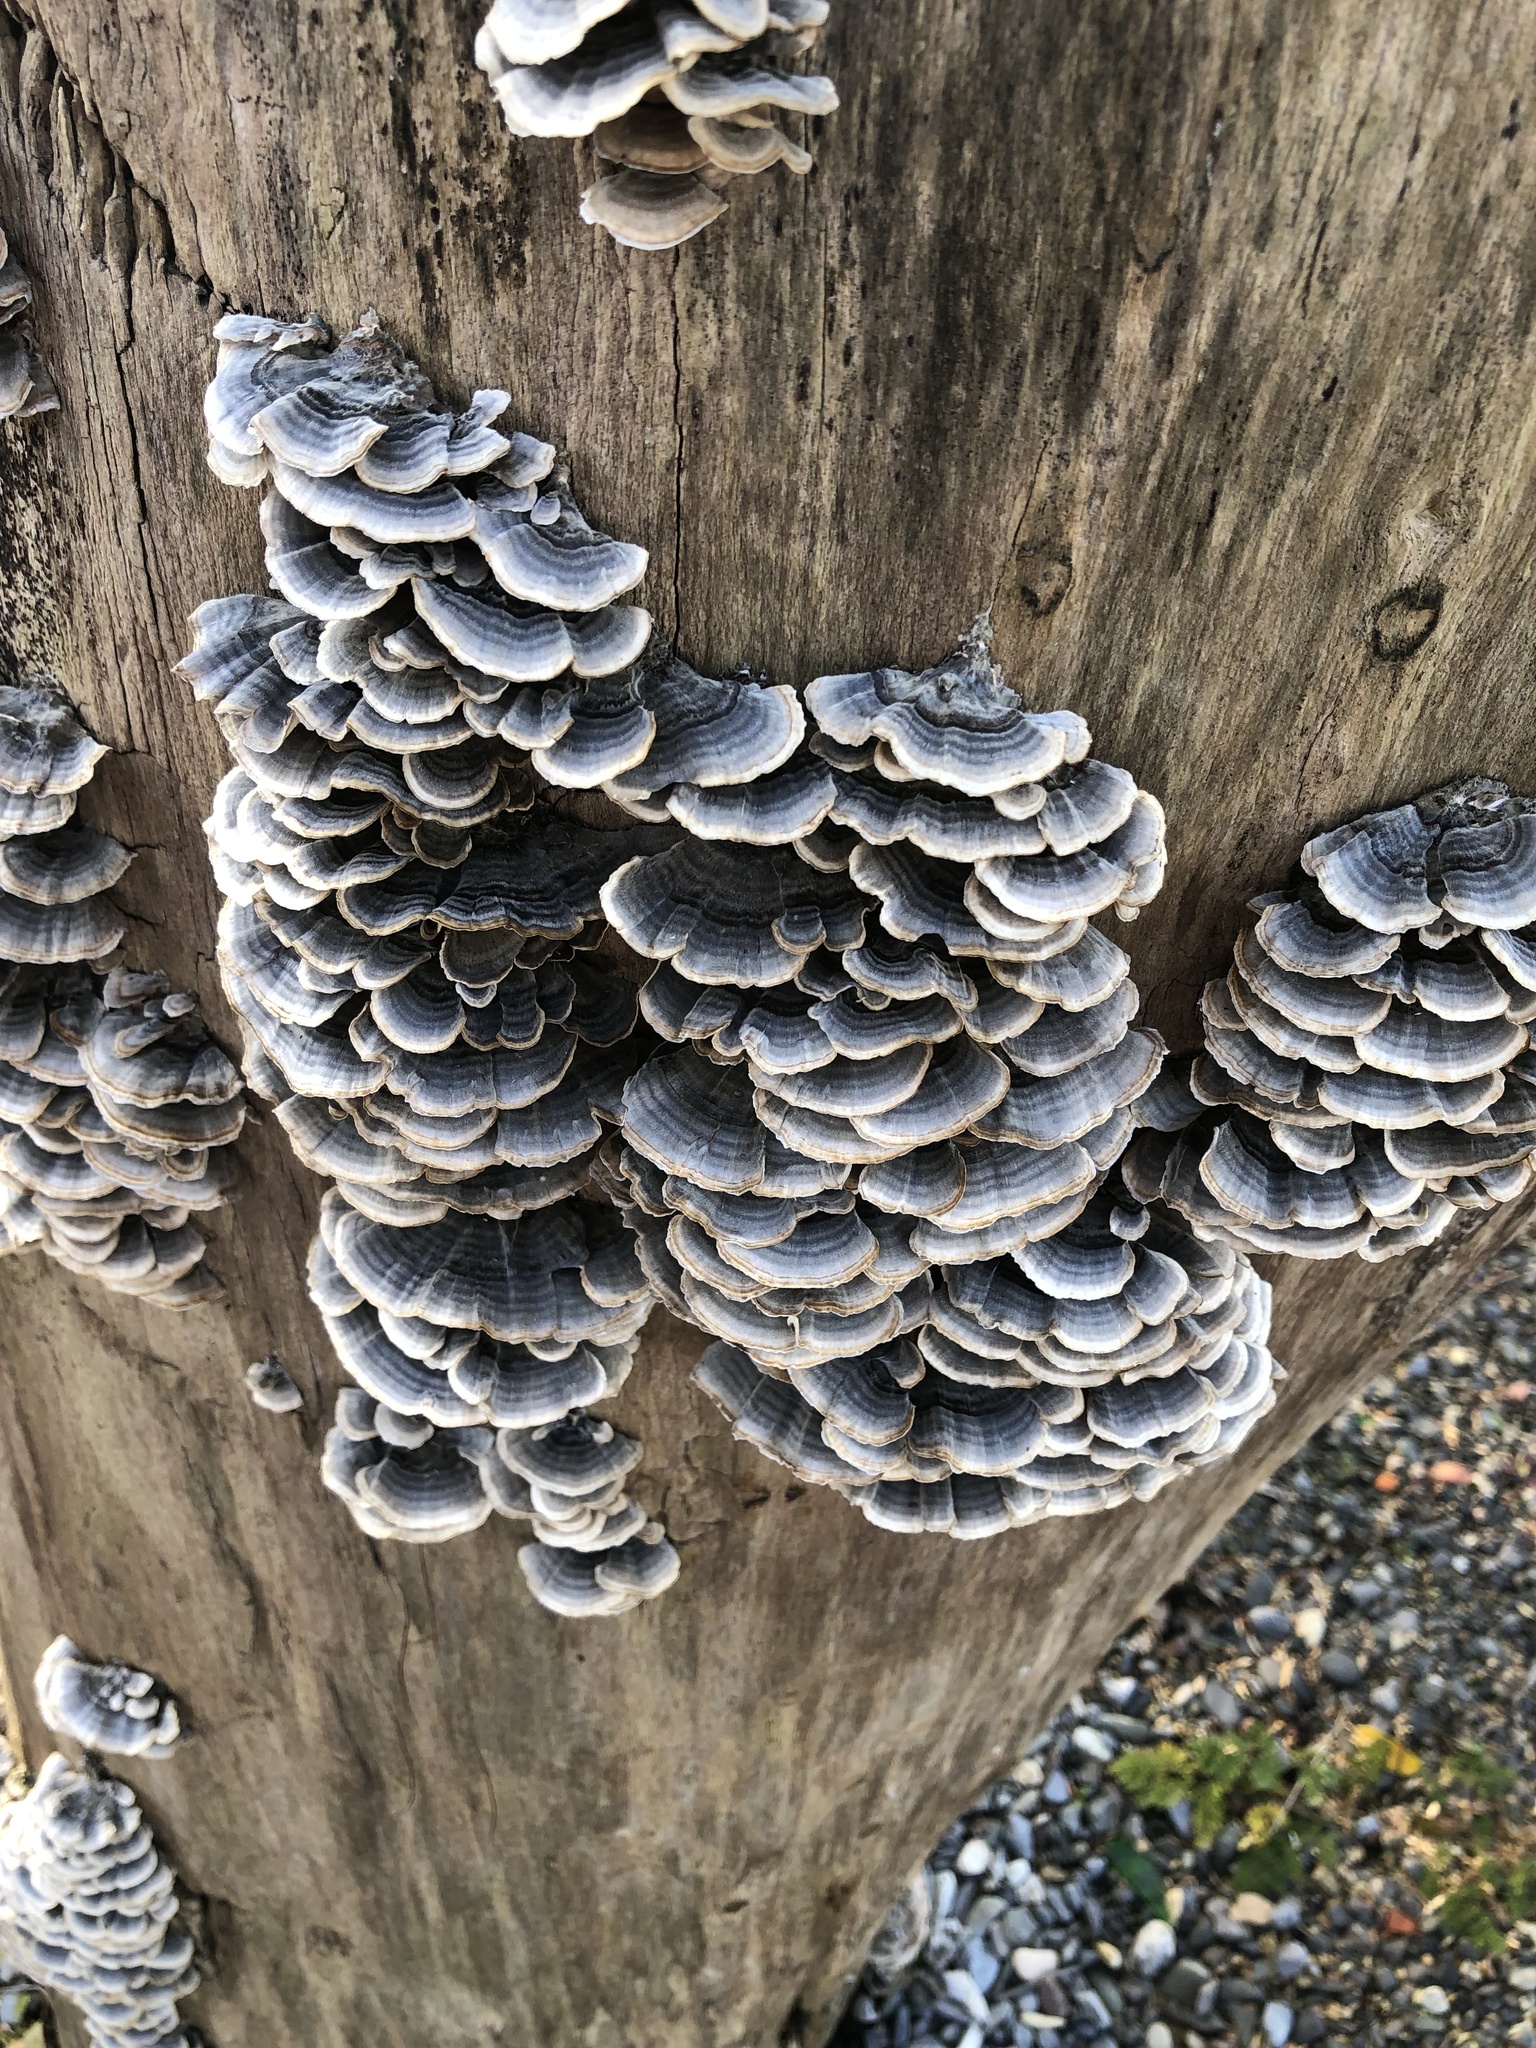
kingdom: Fungi
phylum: Basidiomycota
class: Agaricomycetes
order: Polyporales
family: Polyporaceae
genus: Trametes
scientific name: Trametes versicolor
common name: Turkeytail
